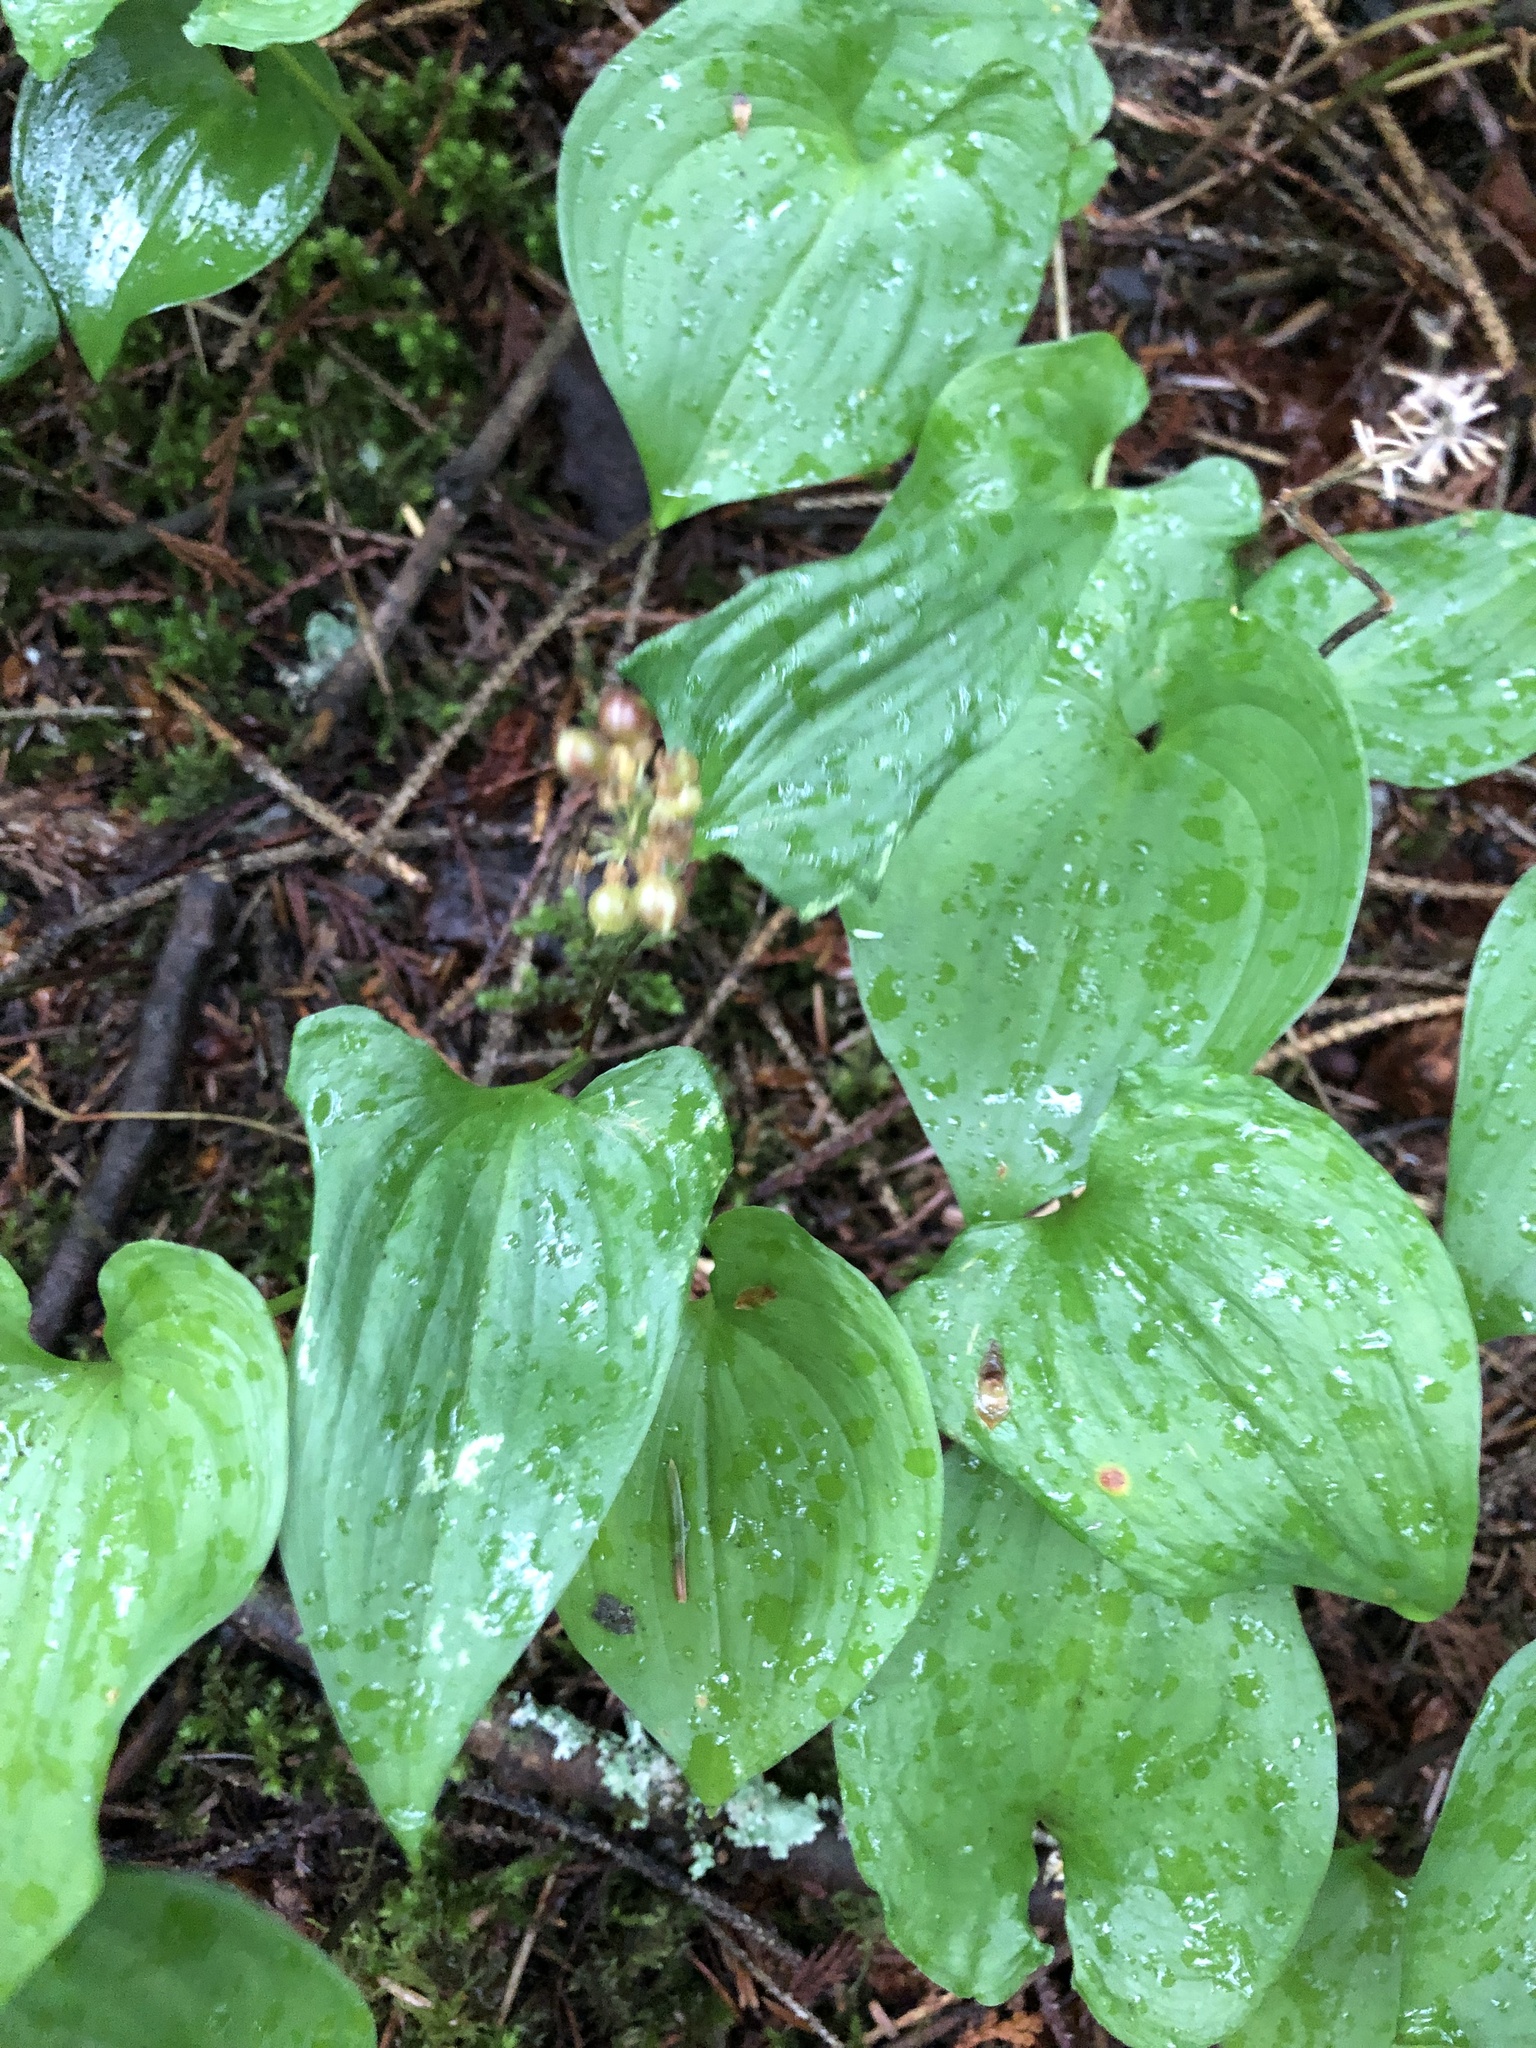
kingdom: Plantae
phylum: Tracheophyta
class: Liliopsida
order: Asparagales
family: Asparagaceae
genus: Maianthemum
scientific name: Maianthemum dilatatum
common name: False lily-of-the-valley
